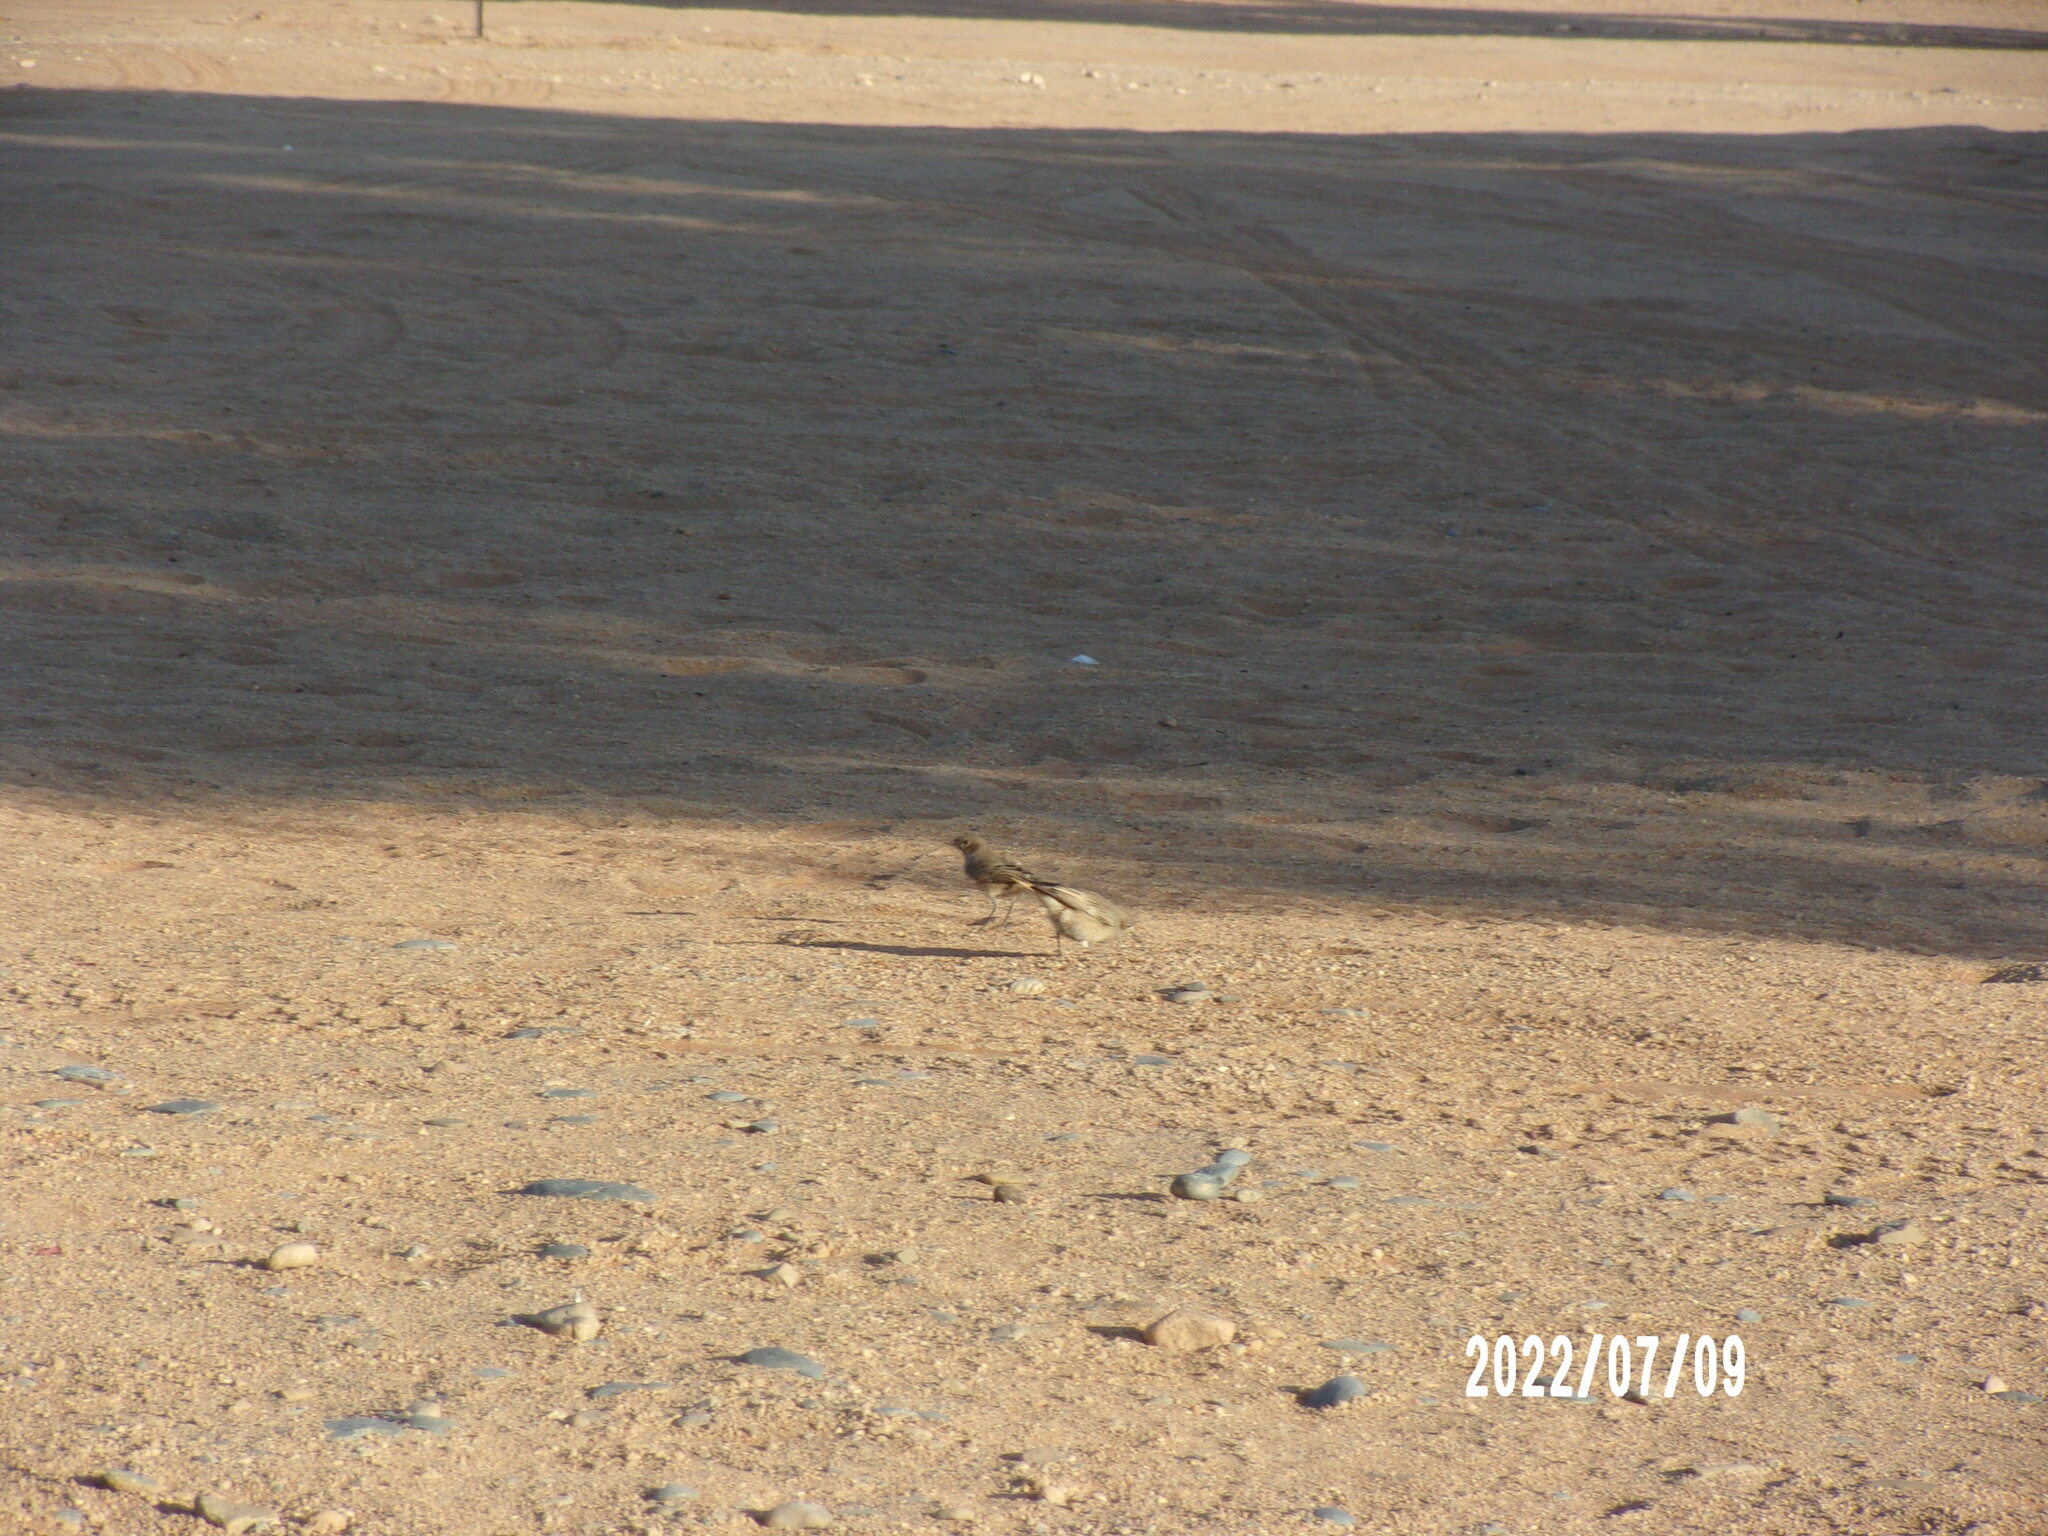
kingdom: Animalia
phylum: Chordata
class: Aves
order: Passeriformes
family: Muscicapidae
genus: Oenanthe
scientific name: Oenanthe familiaris
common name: Familiar chat
